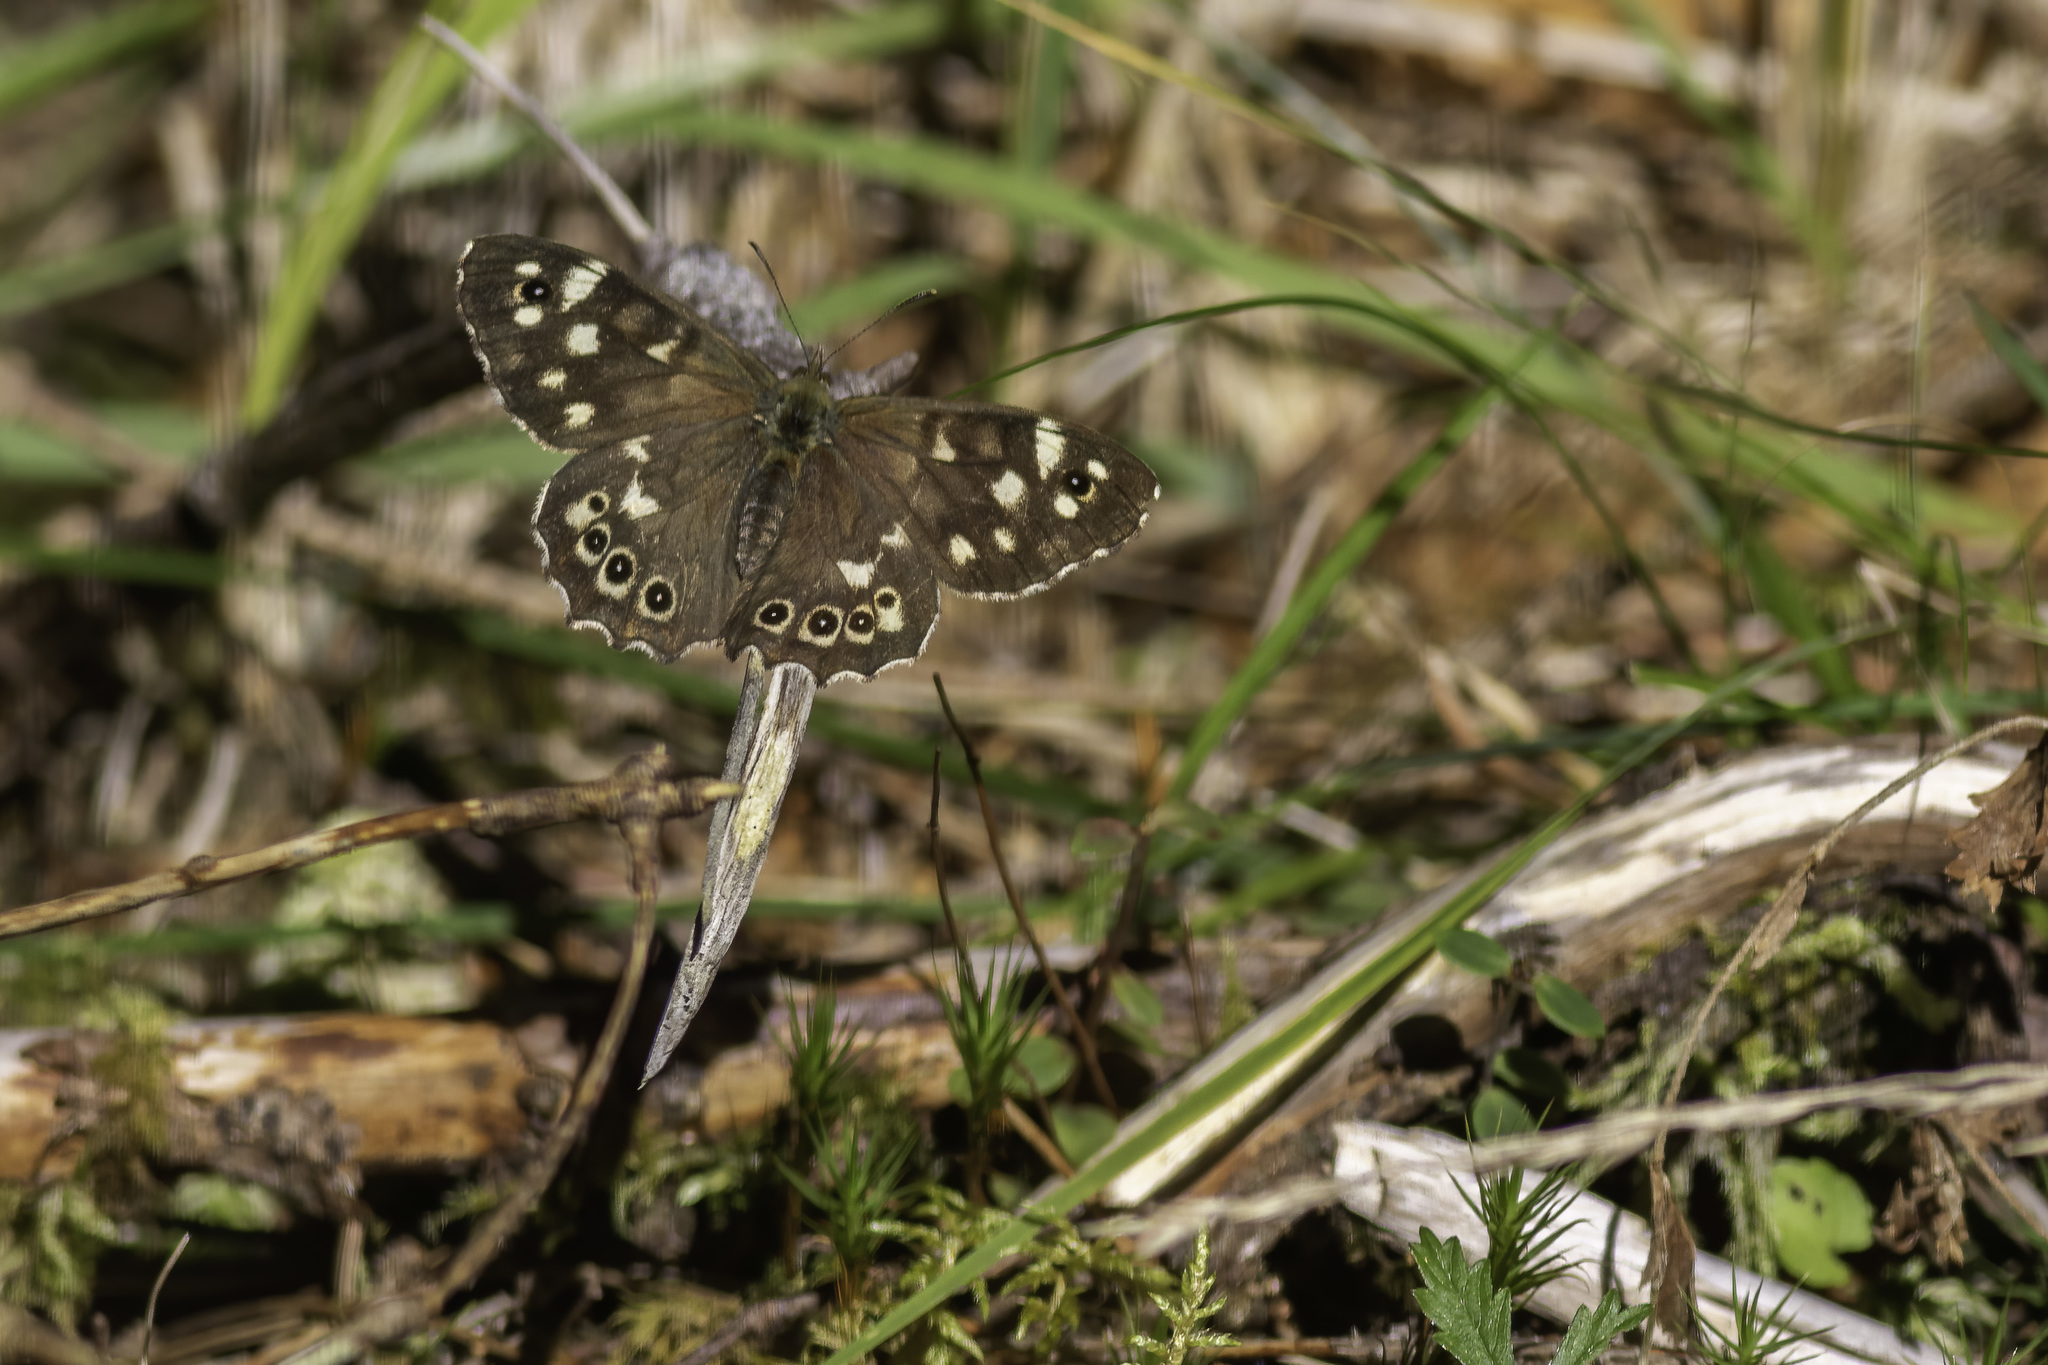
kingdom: Animalia
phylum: Arthropoda
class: Insecta
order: Lepidoptera
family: Nymphalidae
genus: Pararge
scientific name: Pararge aegeria
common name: Speckled wood
